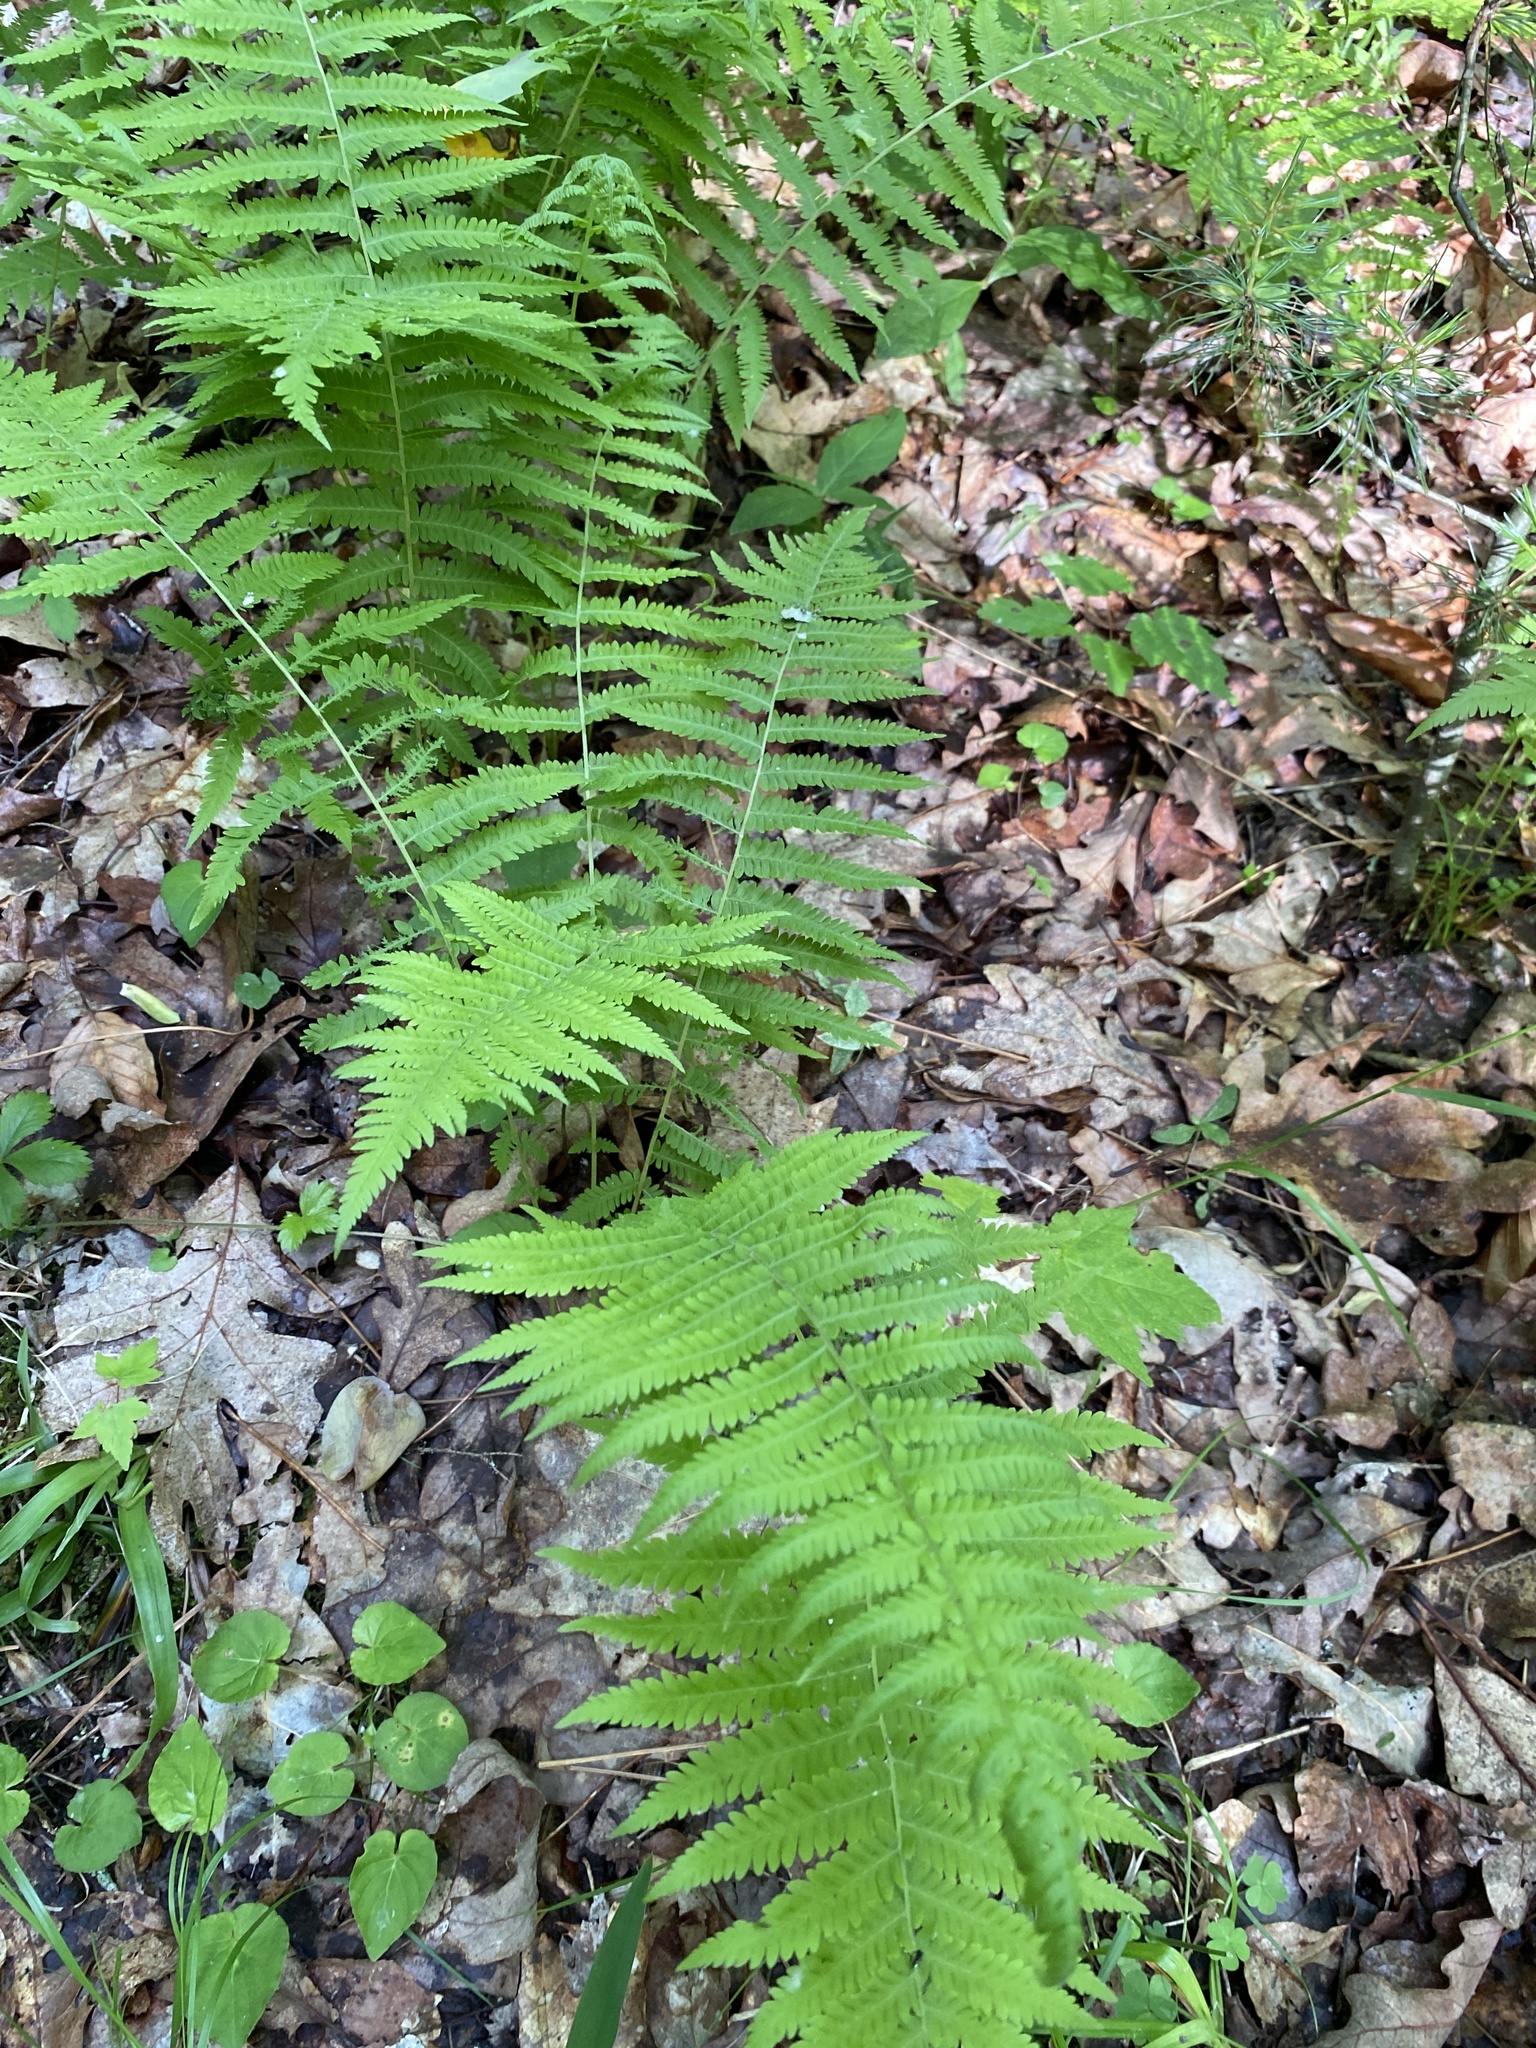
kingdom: Plantae
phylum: Tracheophyta
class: Polypodiopsida
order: Polypodiales
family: Thelypteridaceae
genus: Amauropelta
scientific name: Amauropelta noveboracensis
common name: New york fern
